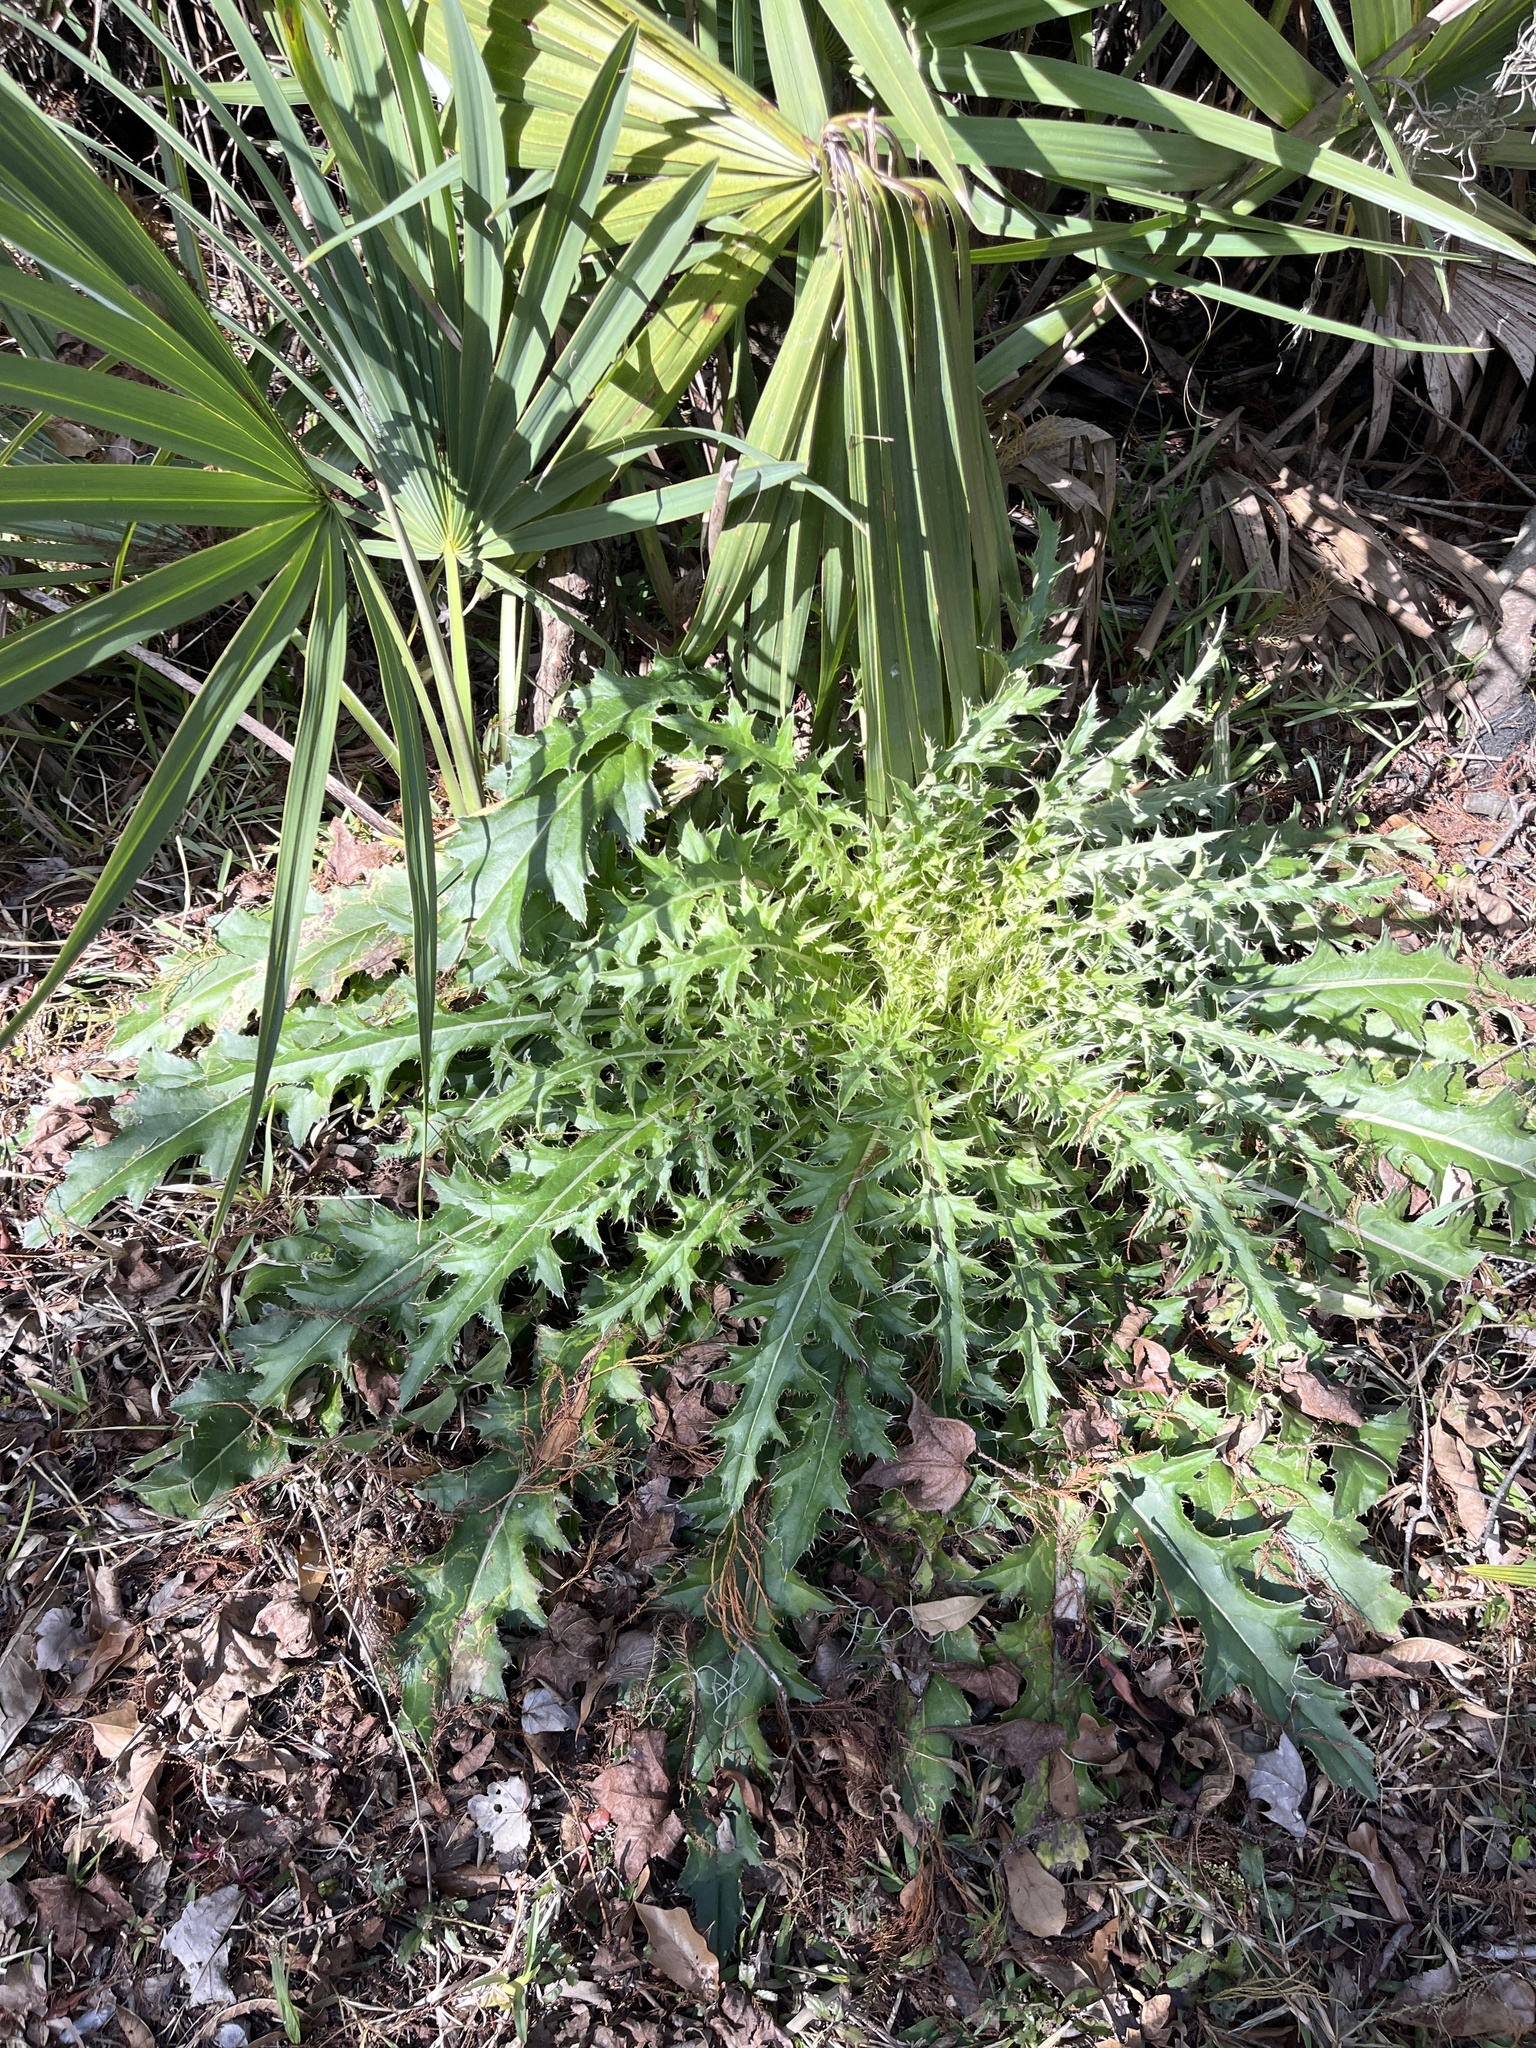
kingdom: Plantae
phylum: Tracheophyta
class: Magnoliopsida
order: Asterales
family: Asteraceae
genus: Cirsium
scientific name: Cirsium horridulum
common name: Bristly thistle
